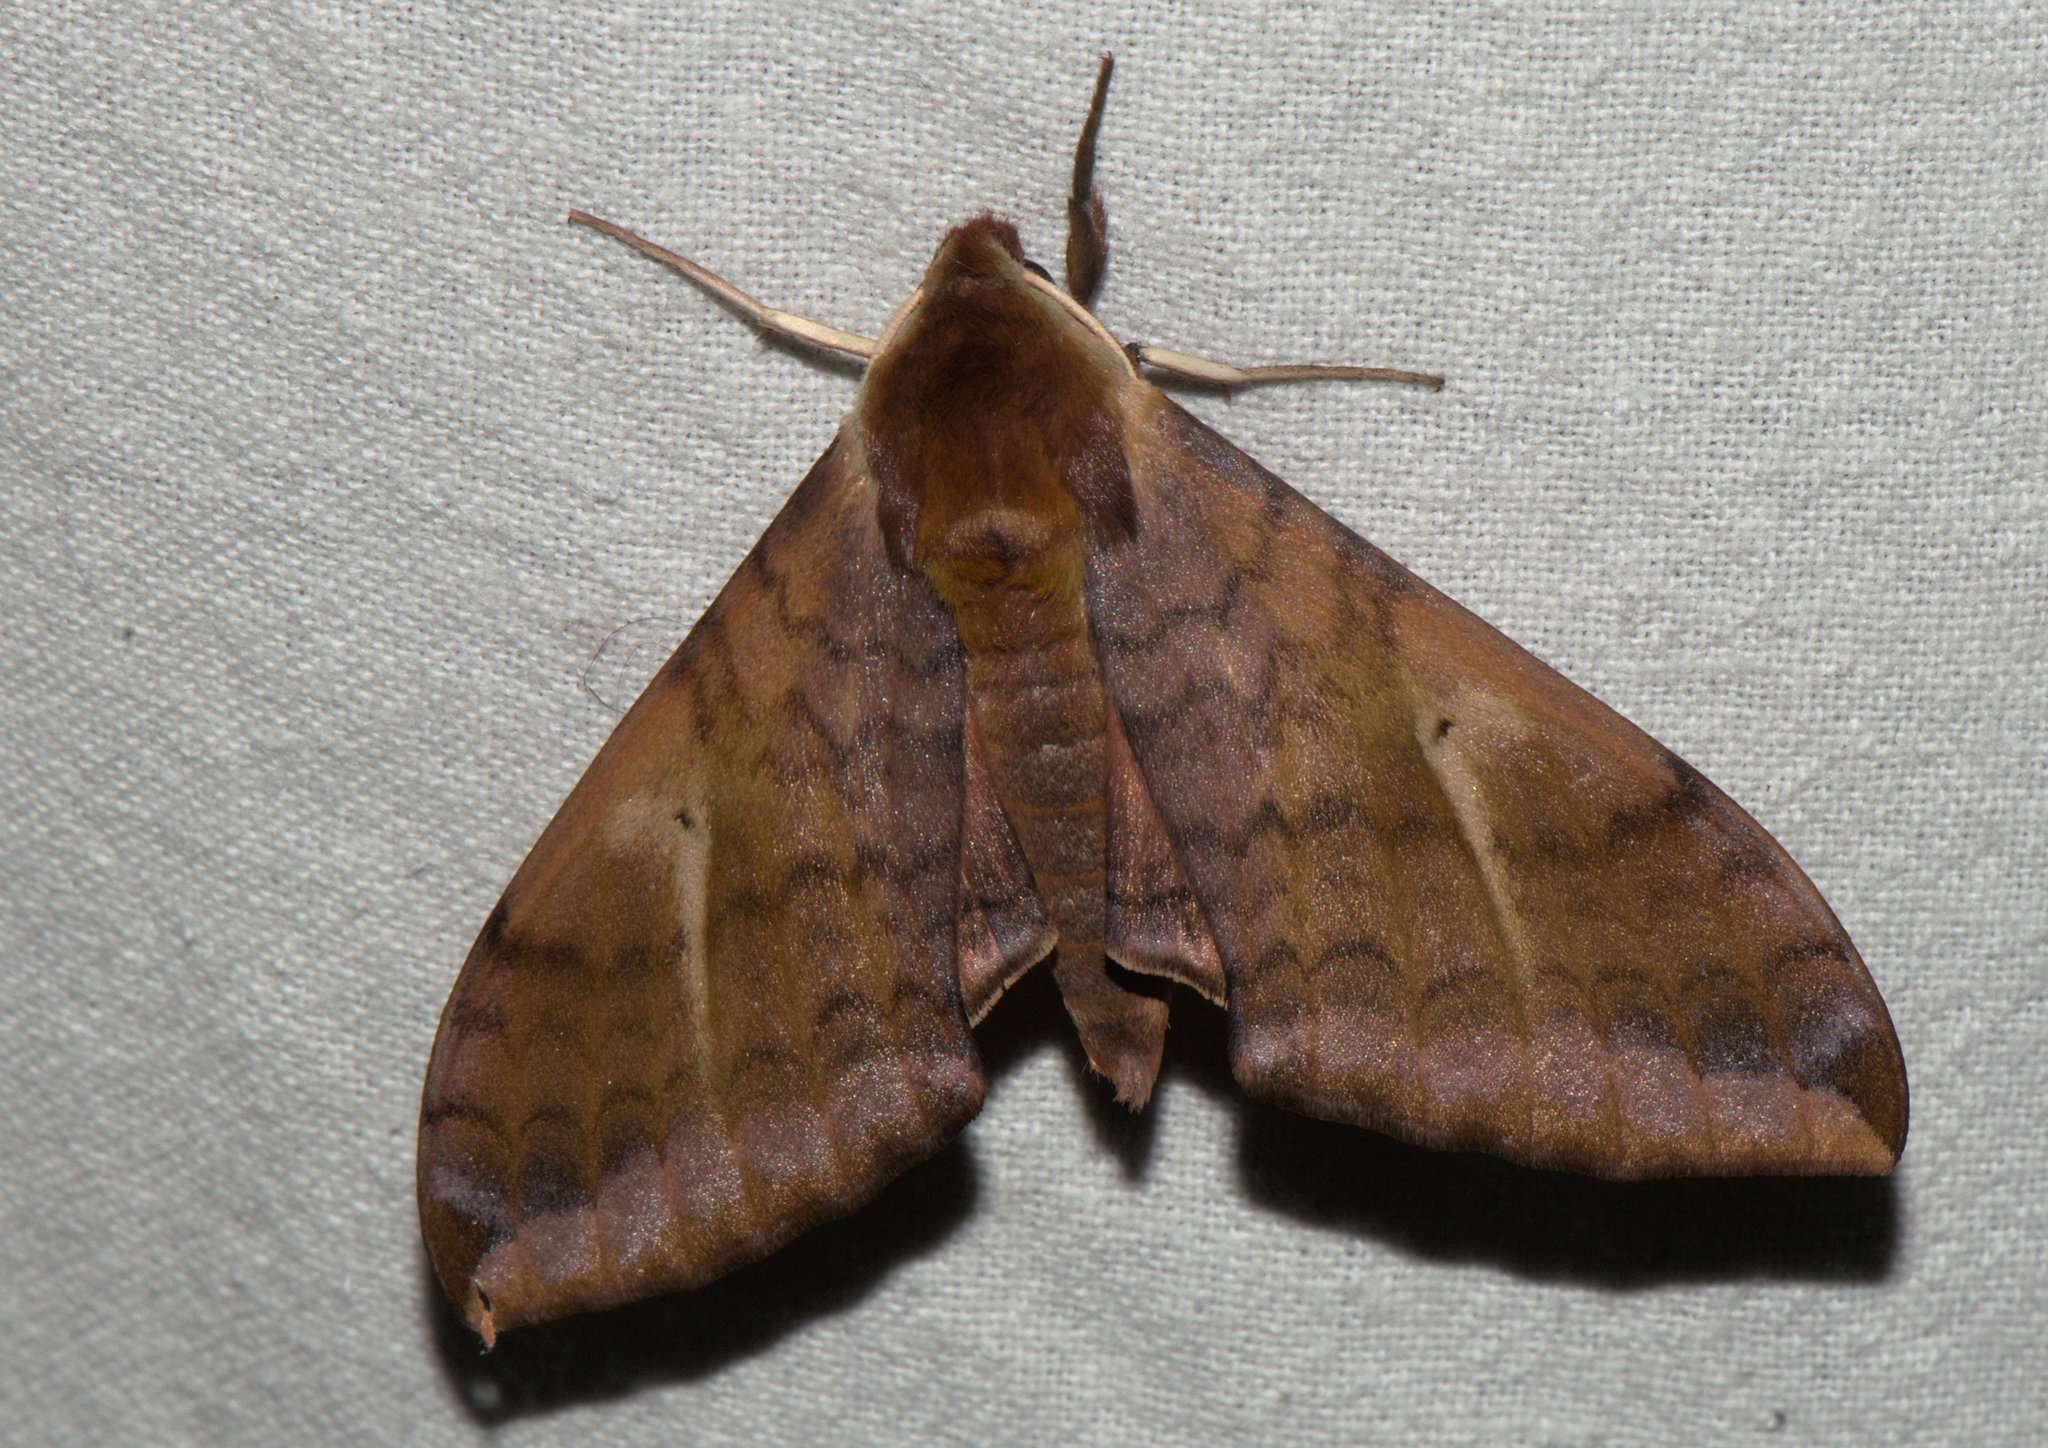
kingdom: Animalia
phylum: Arthropoda
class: Insecta
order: Lepidoptera
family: Sphingidae
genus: Clanidopsis
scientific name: Clanidopsis exusta
